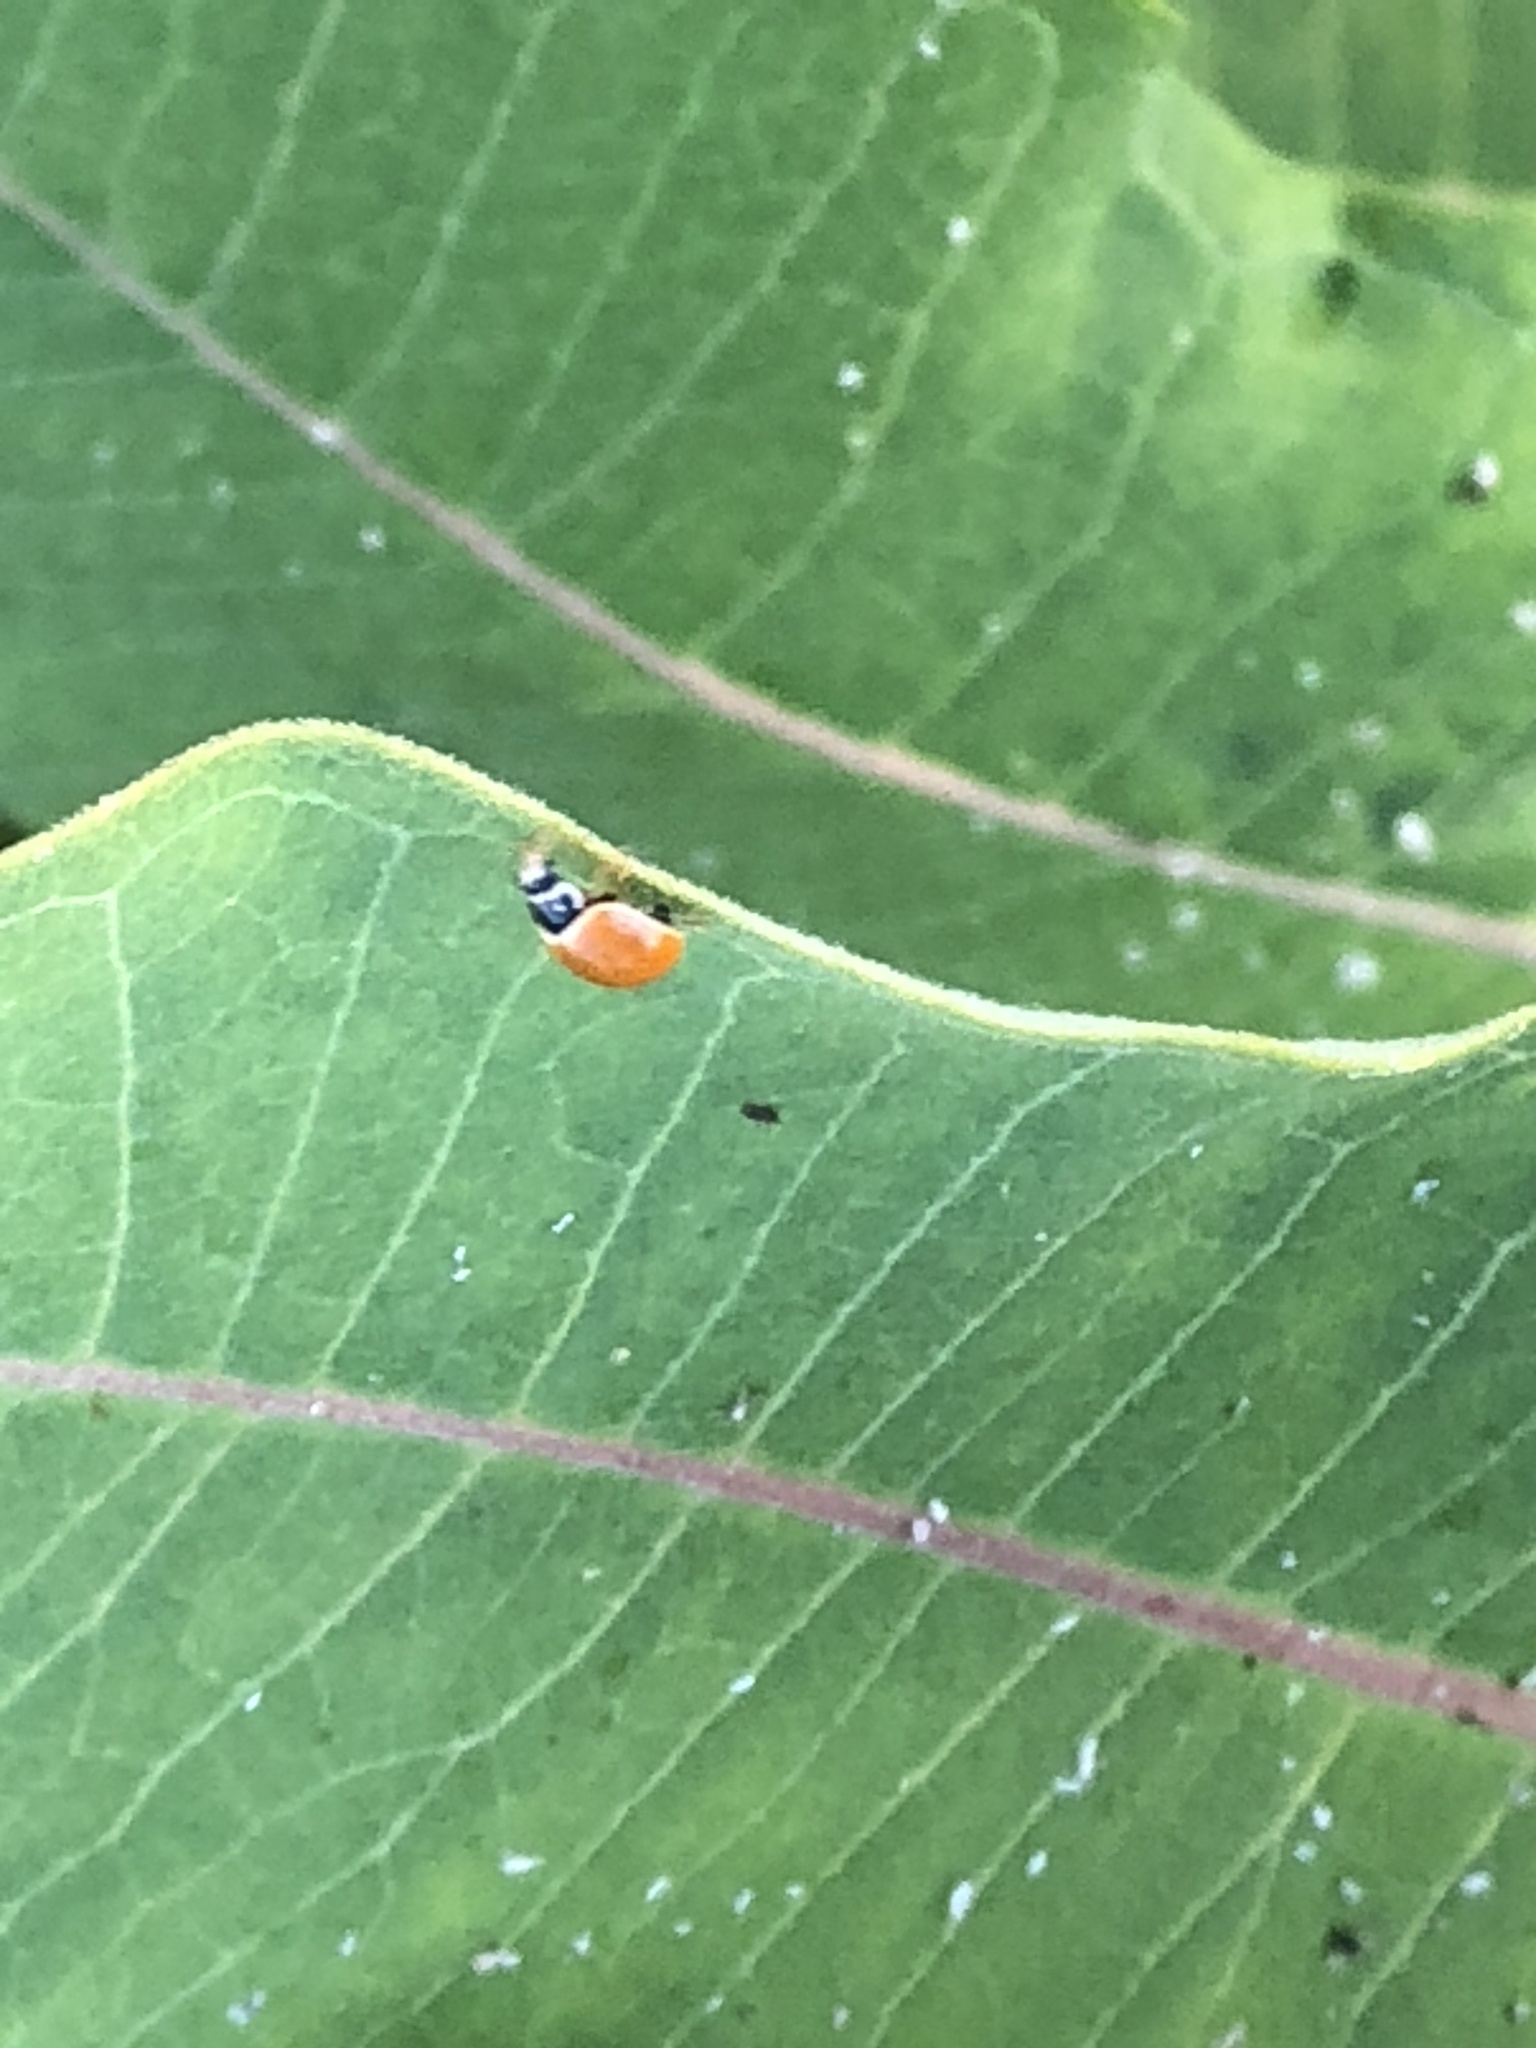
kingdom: Animalia
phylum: Arthropoda
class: Insecta
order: Coleoptera
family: Coccinellidae
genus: Hippodamia
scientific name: Hippodamia convergens
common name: Convergent lady beetle
